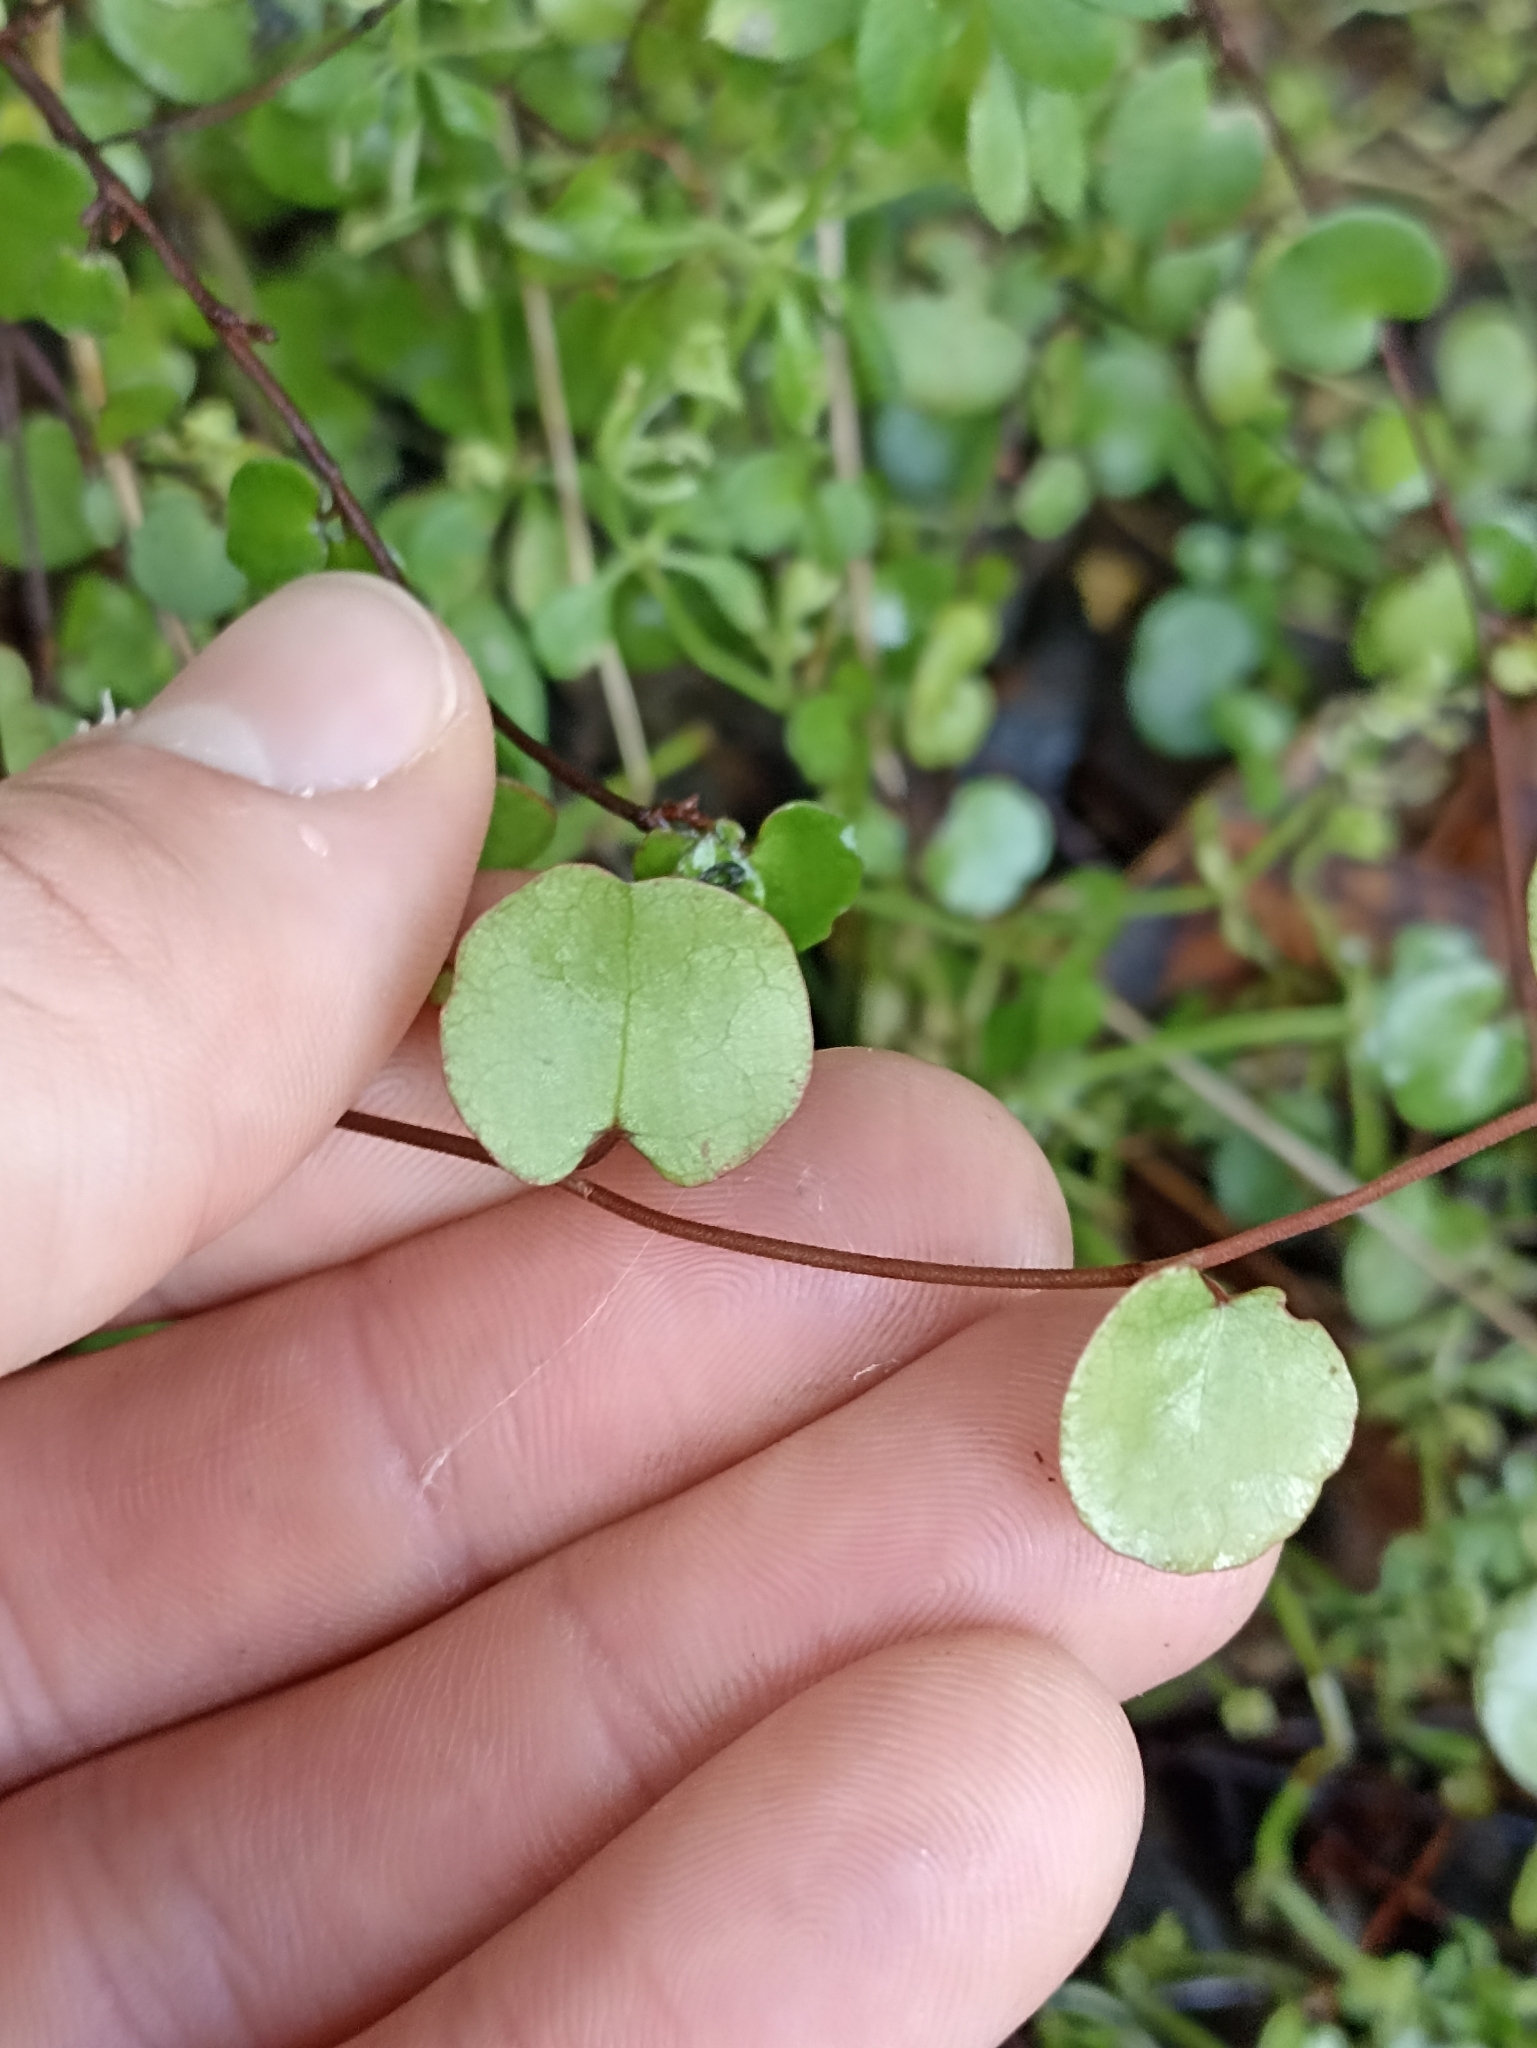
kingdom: Plantae
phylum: Tracheophyta
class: Magnoliopsida
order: Caryophyllales
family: Polygonaceae
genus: Muehlenbeckia
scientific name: Muehlenbeckia complexa
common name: Wireplant
